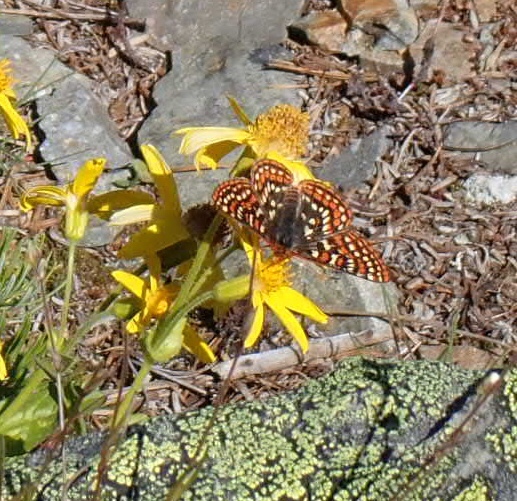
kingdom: Animalia
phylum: Arthropoda
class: Insecta
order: Lepidoptera
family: Nymphalidae
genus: Occidryas
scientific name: Occidryas editha
